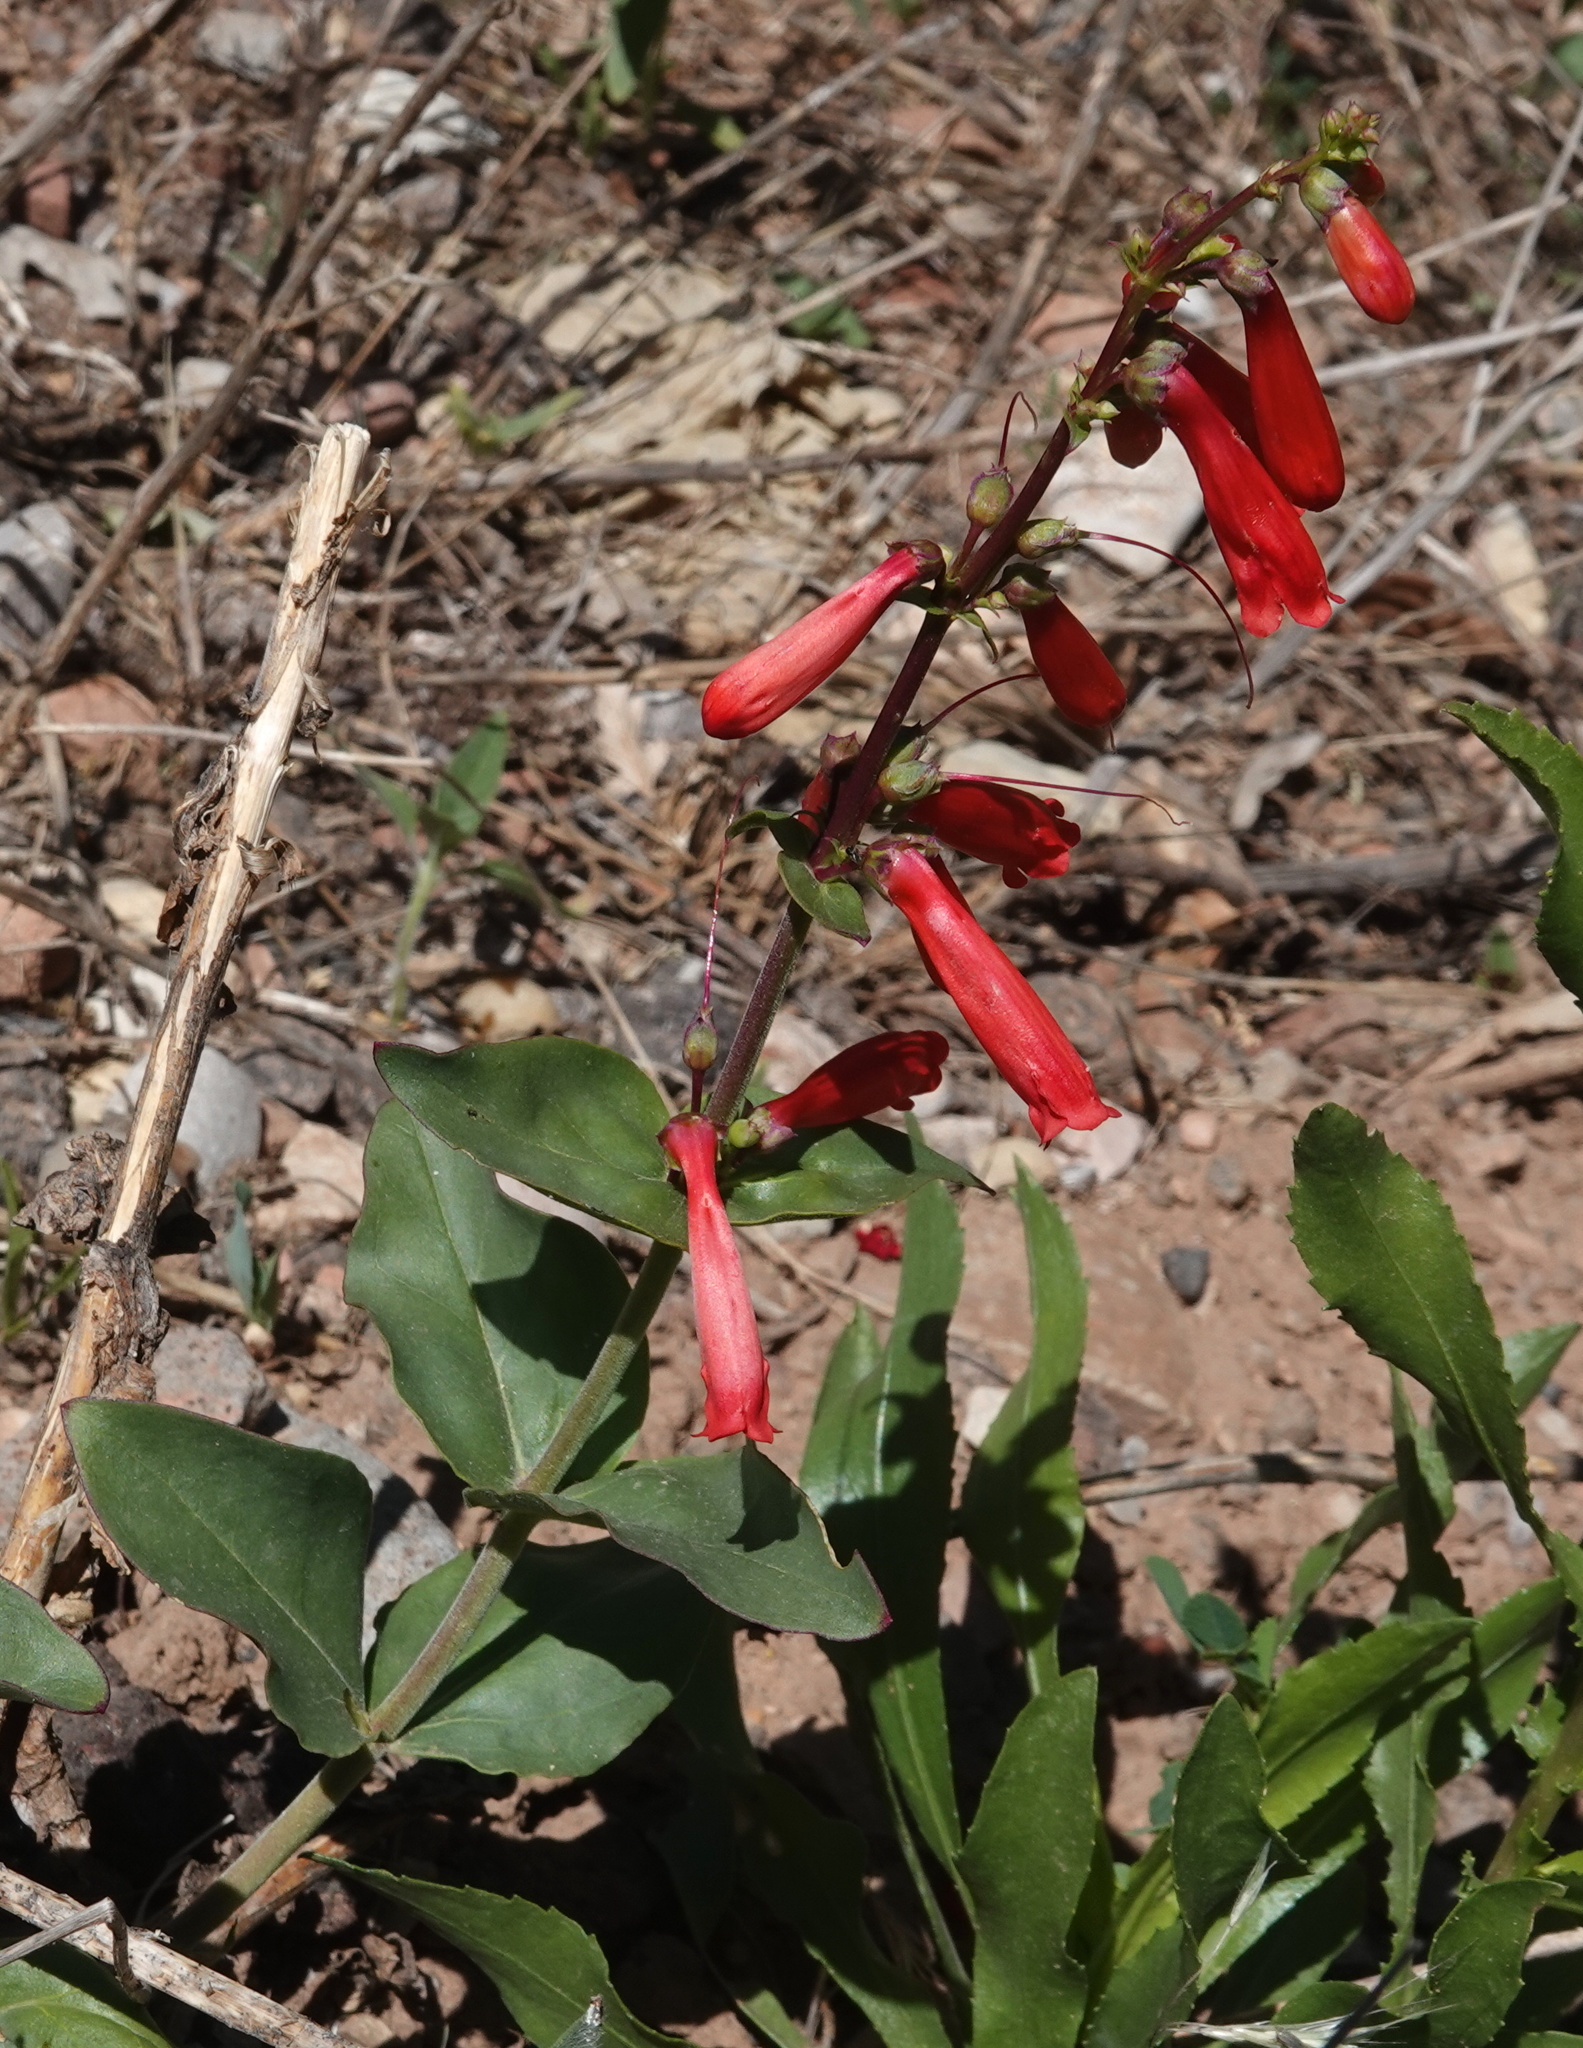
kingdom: Plantae
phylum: Tracheophyta
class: Magnoliopsida
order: Lamiales
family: Plantaginaceae
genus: Penstemon
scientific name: Penstemon eatonii
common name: Eaton's penstemon
